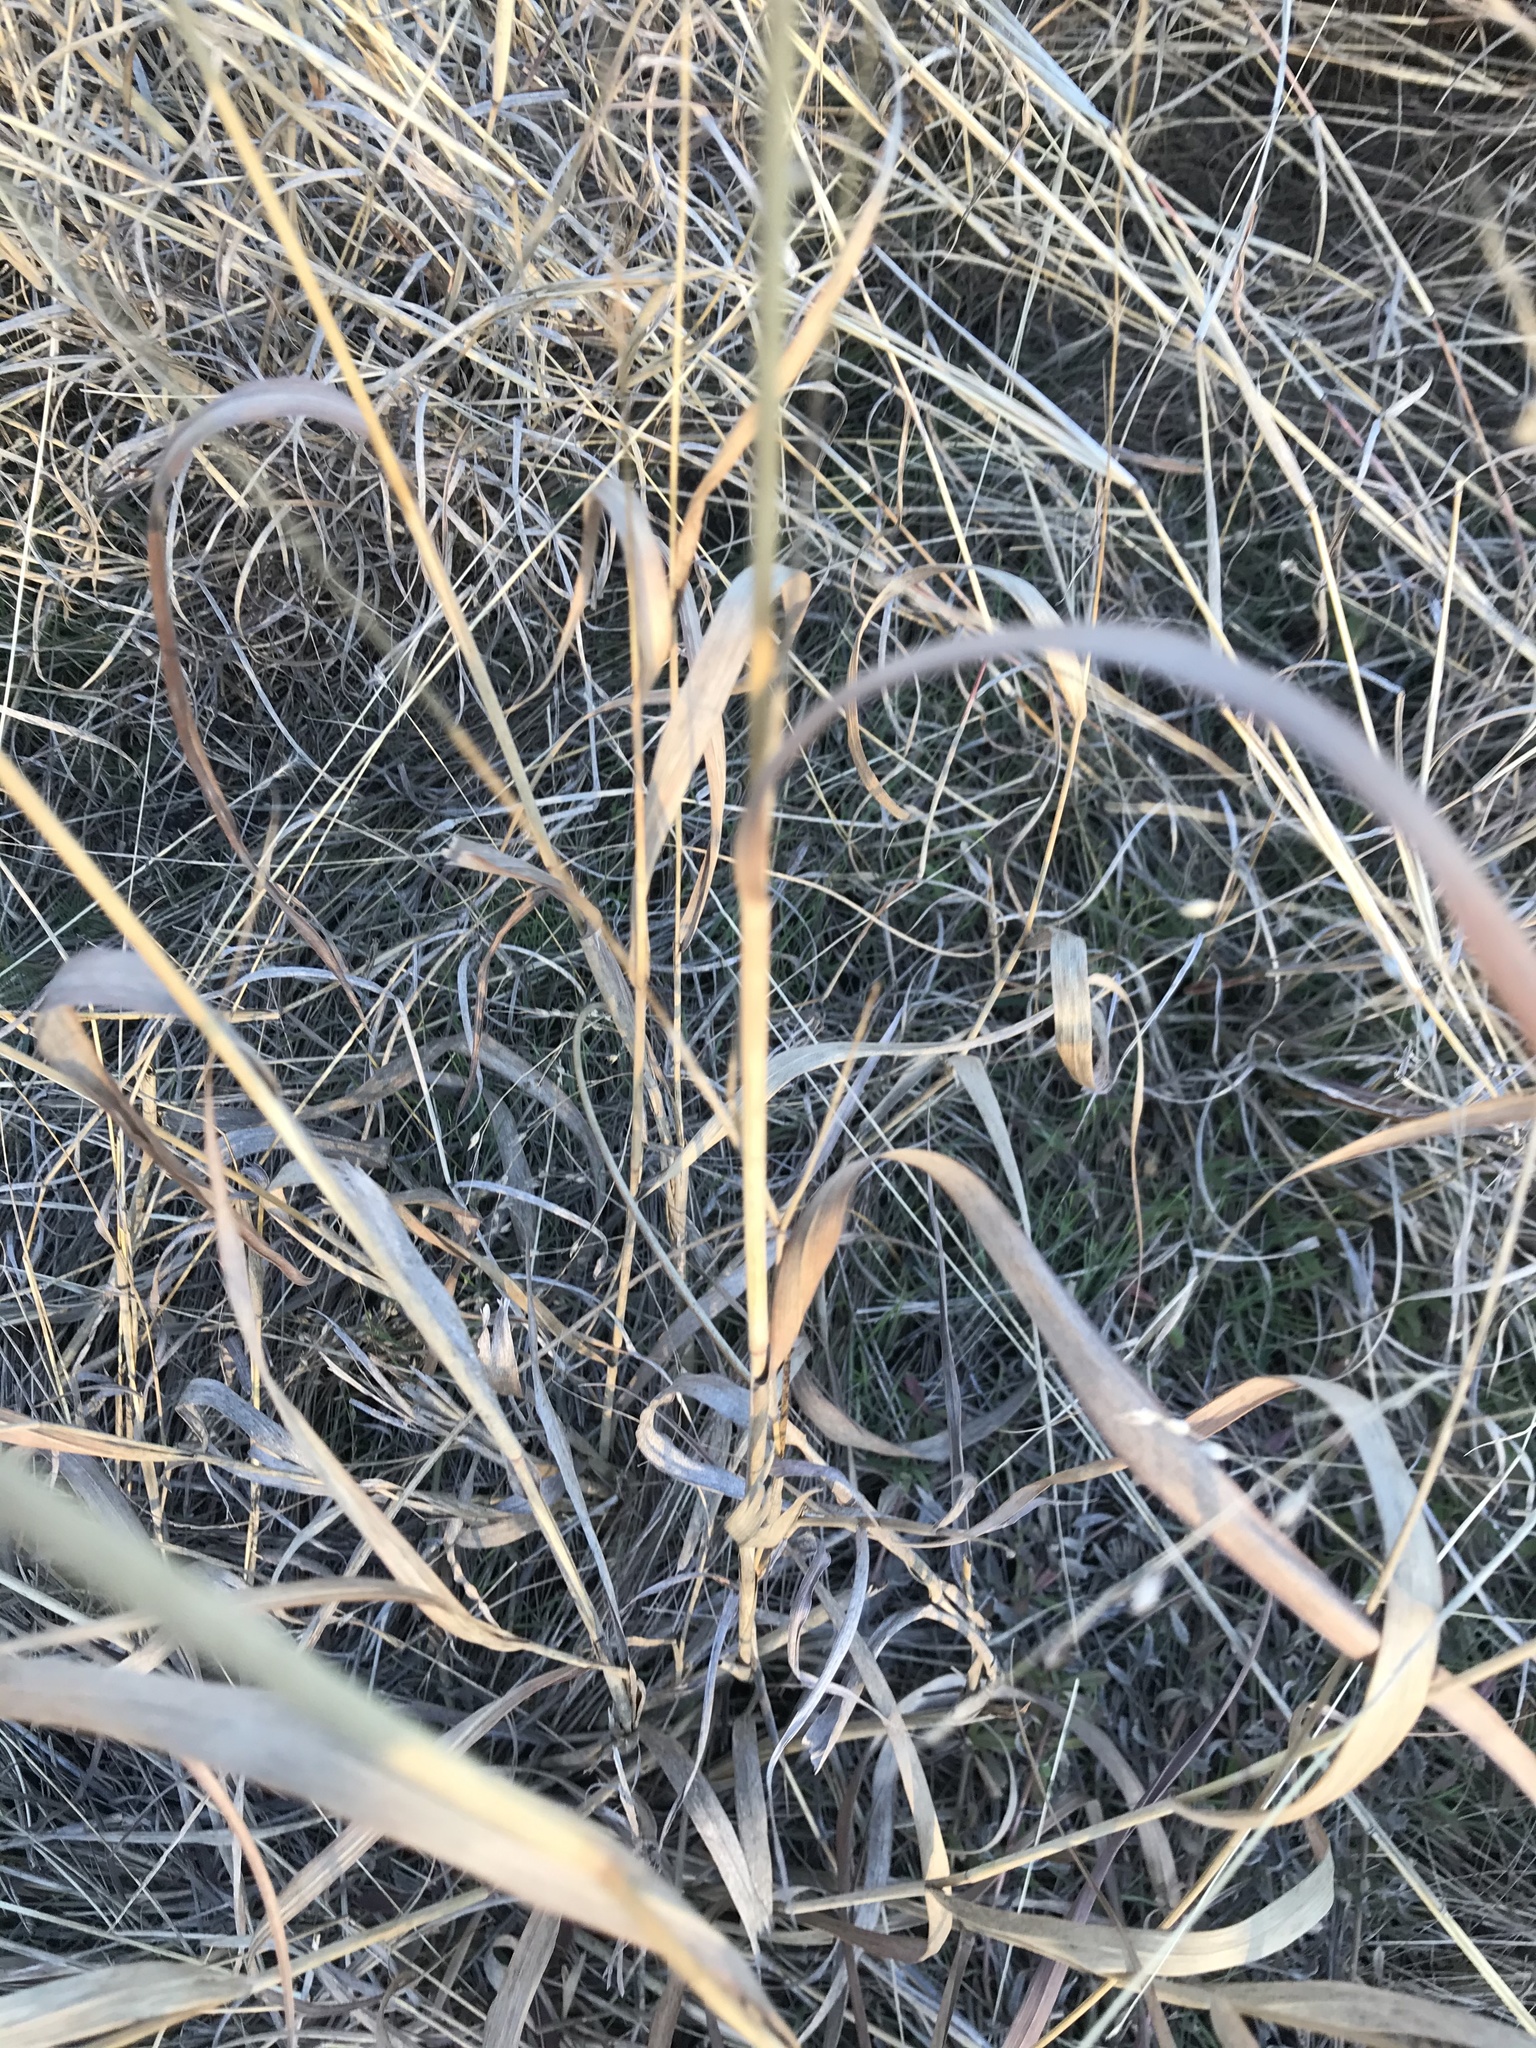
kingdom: Plantae
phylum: Tracheophyta
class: Liliopsida
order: Poales
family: Poaceae
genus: Panicum
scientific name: Panicum virgatum
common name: Switchgrass
